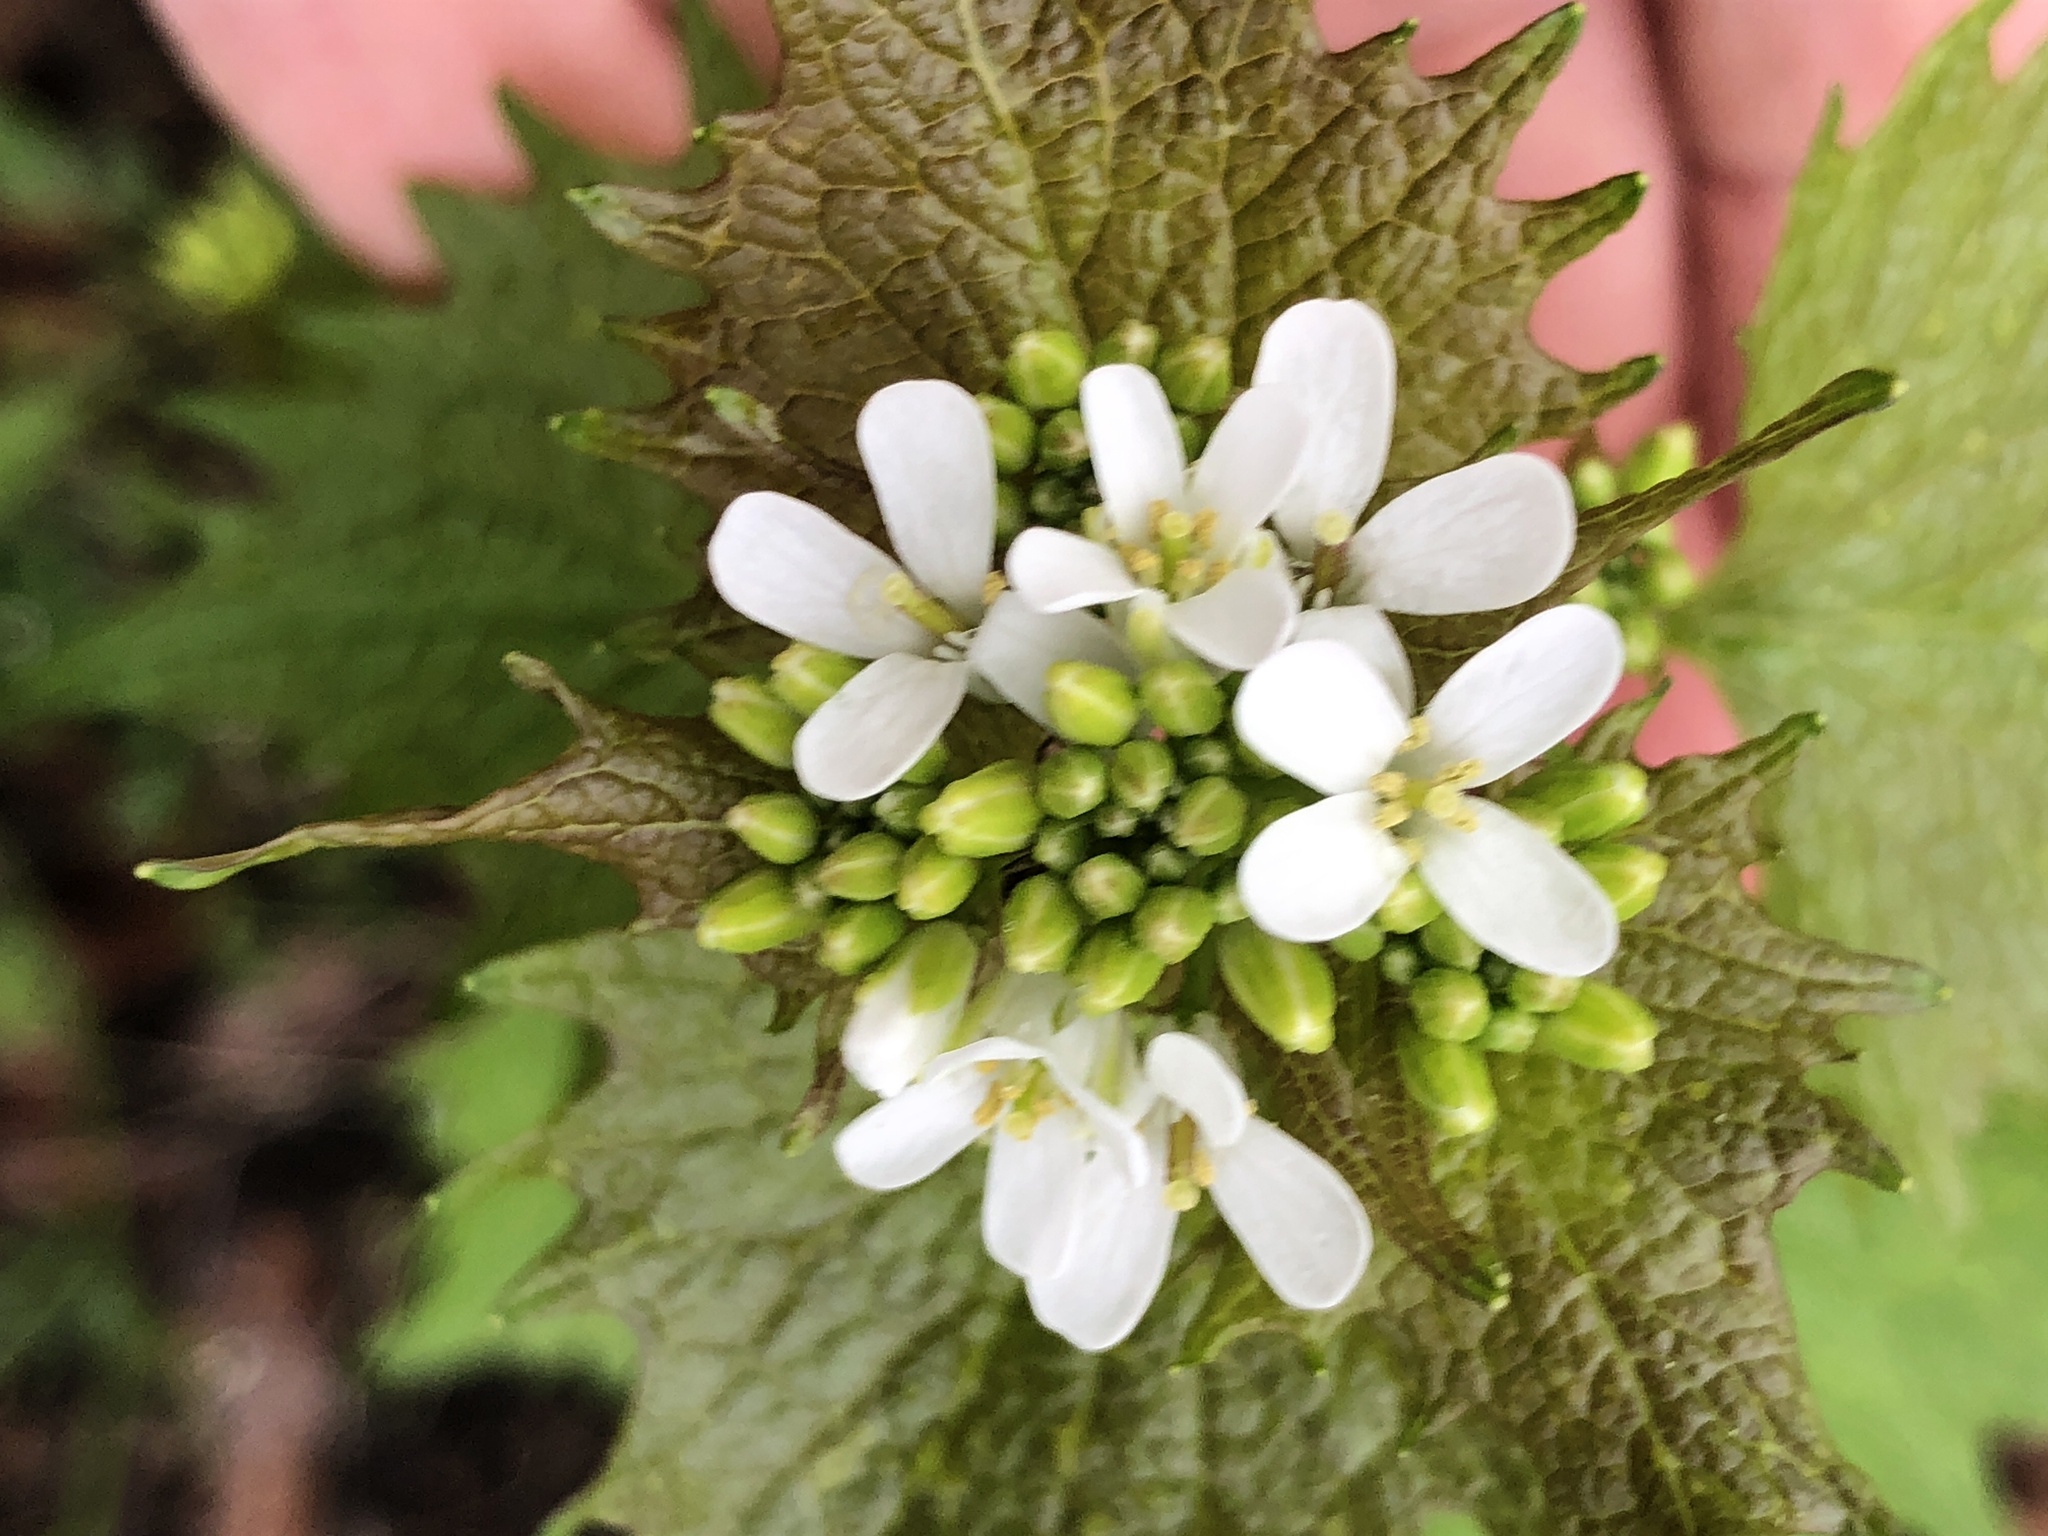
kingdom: Plantae
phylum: Tracheophyta
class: Magnoliopsida
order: Brassicales
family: Brassicaceae
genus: Alliaria
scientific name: Alliaria petiolata
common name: Garlic mustard
